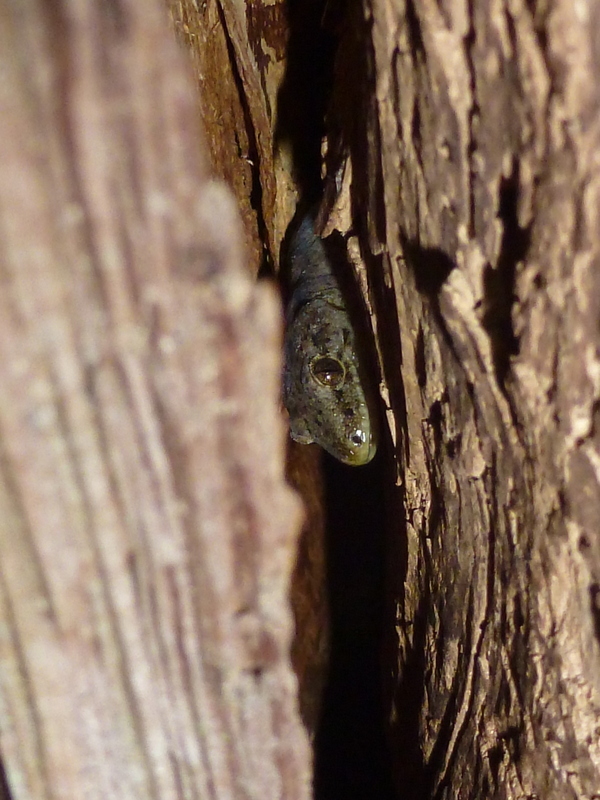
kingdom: Animalia
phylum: Chordata
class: Squamata
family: Diplodactylidae
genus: Woodworthia
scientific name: Woodworthia maculata
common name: Raukawa gecko
